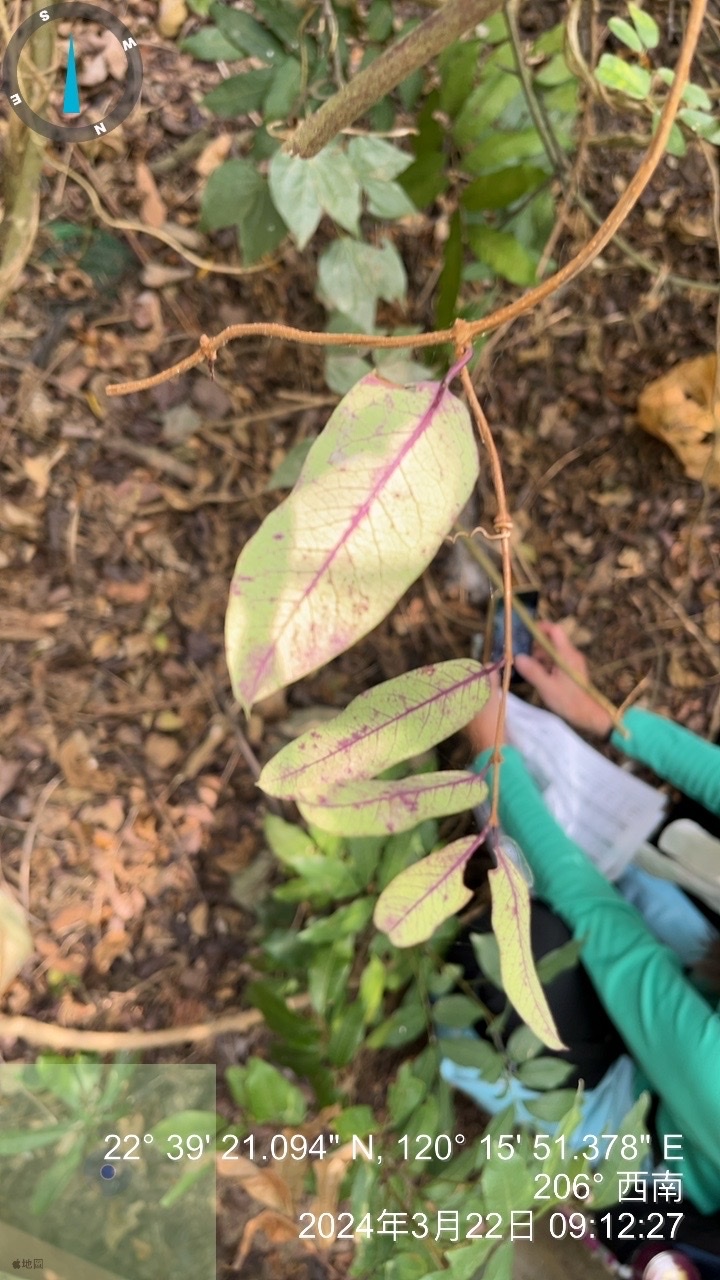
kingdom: Plantae
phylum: Tracheophyta
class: Magnoliopsida
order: Gentianales
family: Apocynaceae
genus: Cryptolepis
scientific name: Cryptolepis sinensis
